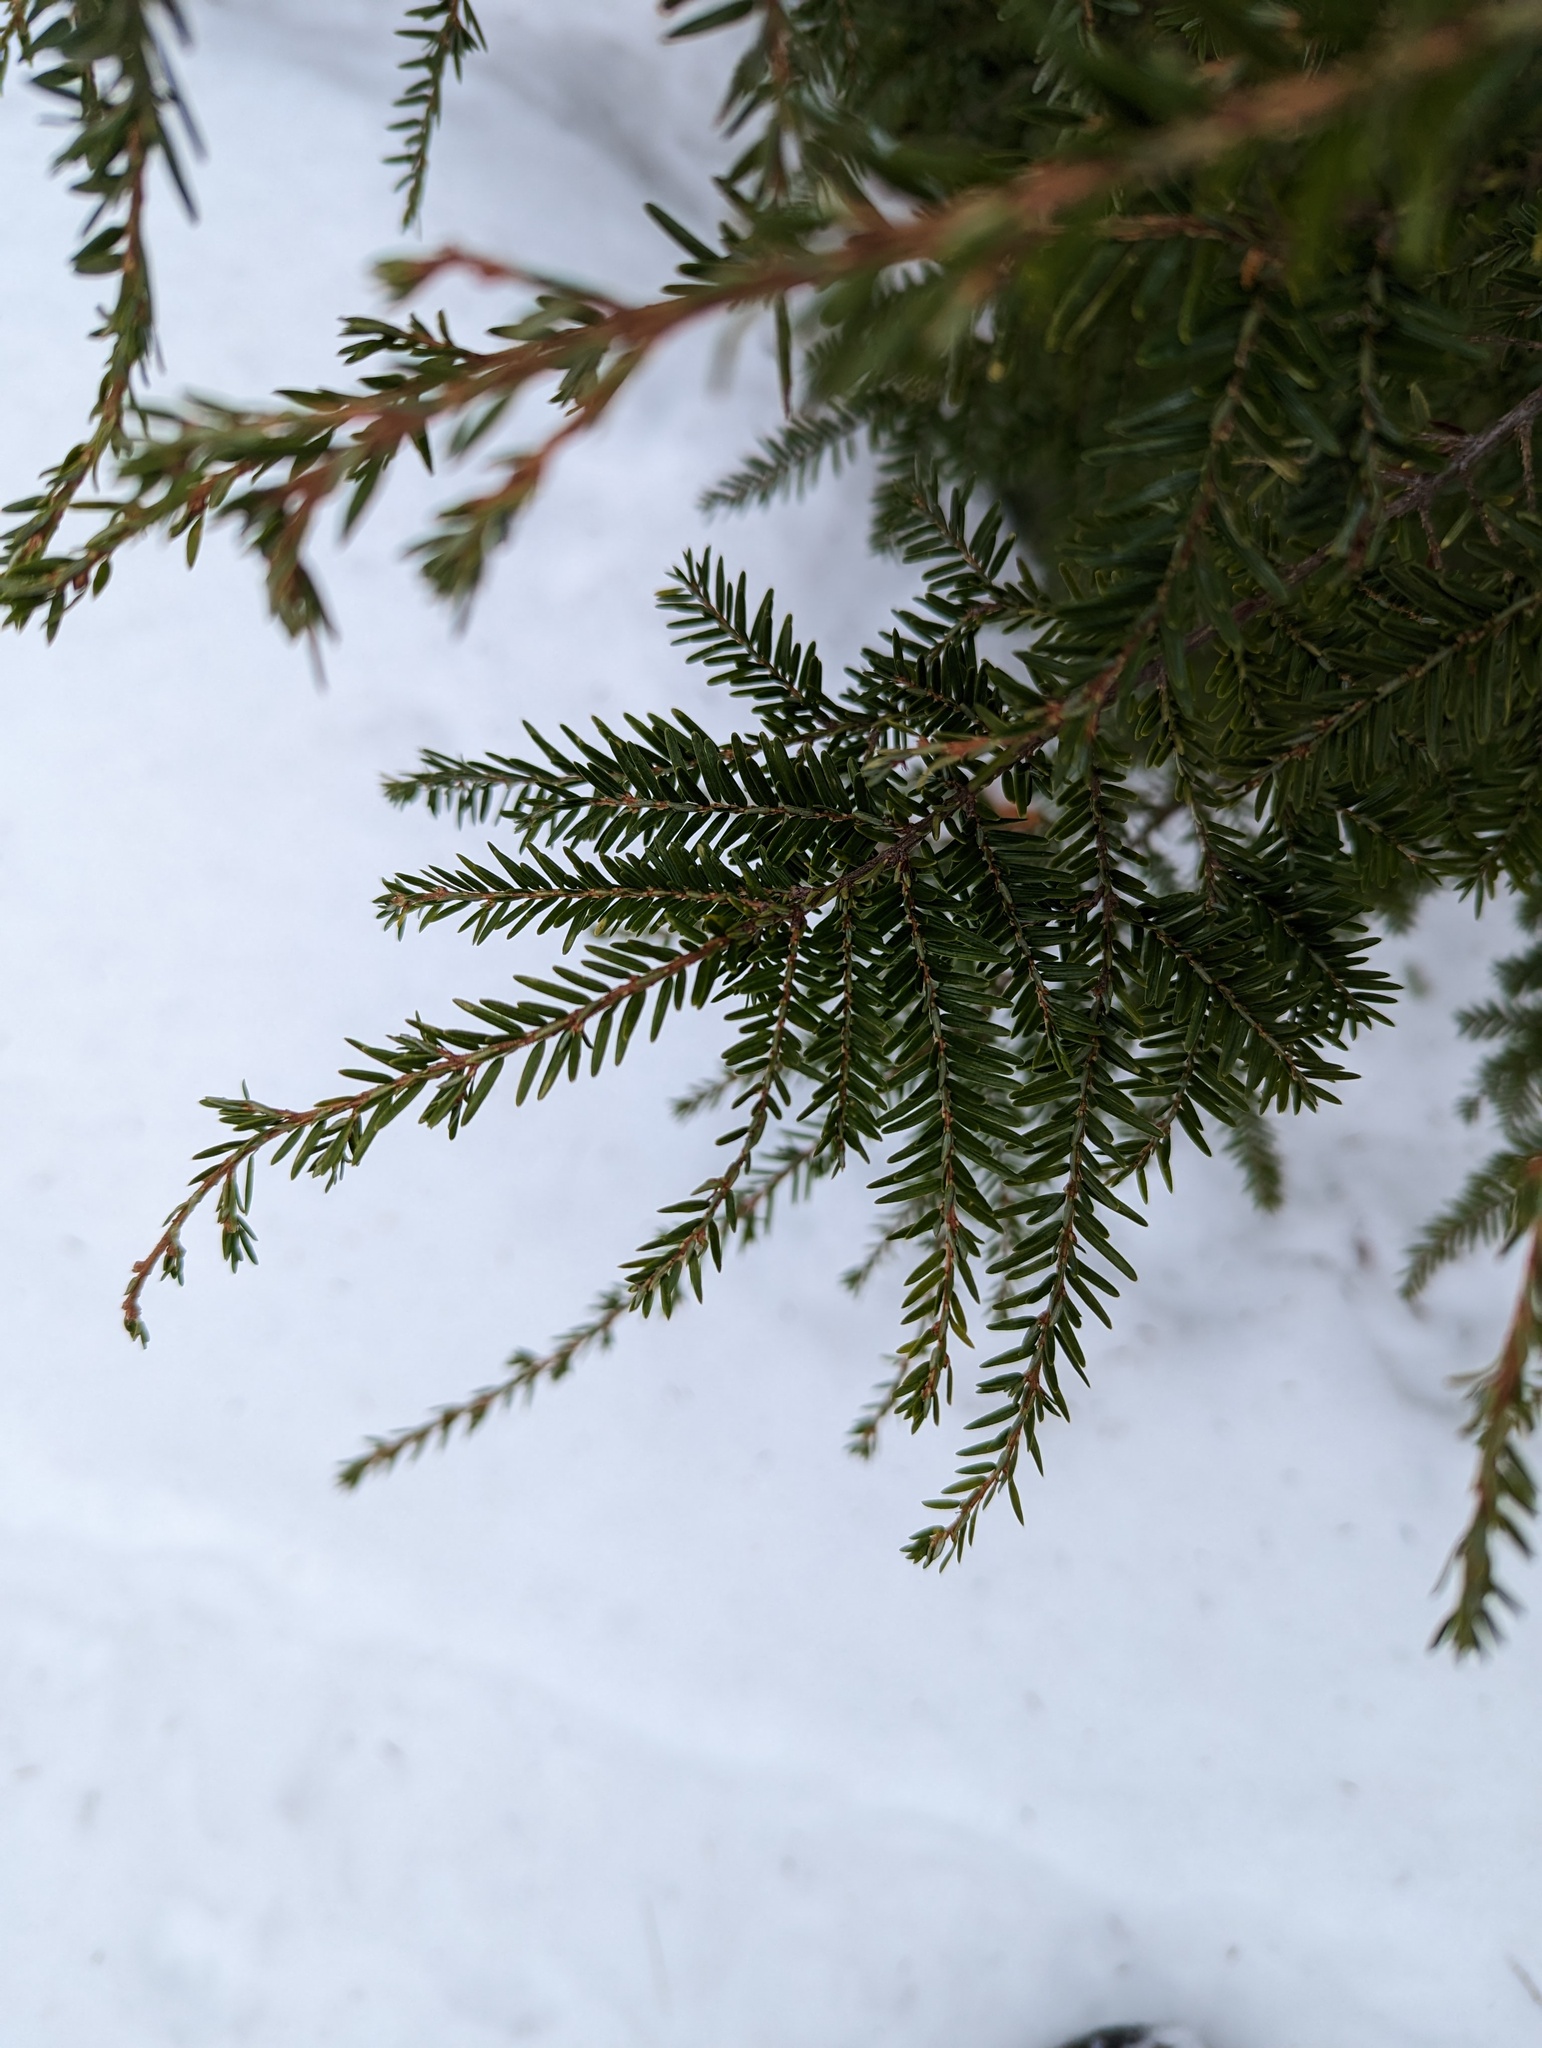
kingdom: Plantae
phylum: Tracheophyta
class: Pinopsida
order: Pinales
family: Pinaceae
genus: Tsuga
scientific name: Tsuga canadensis
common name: Eastern hemlock
